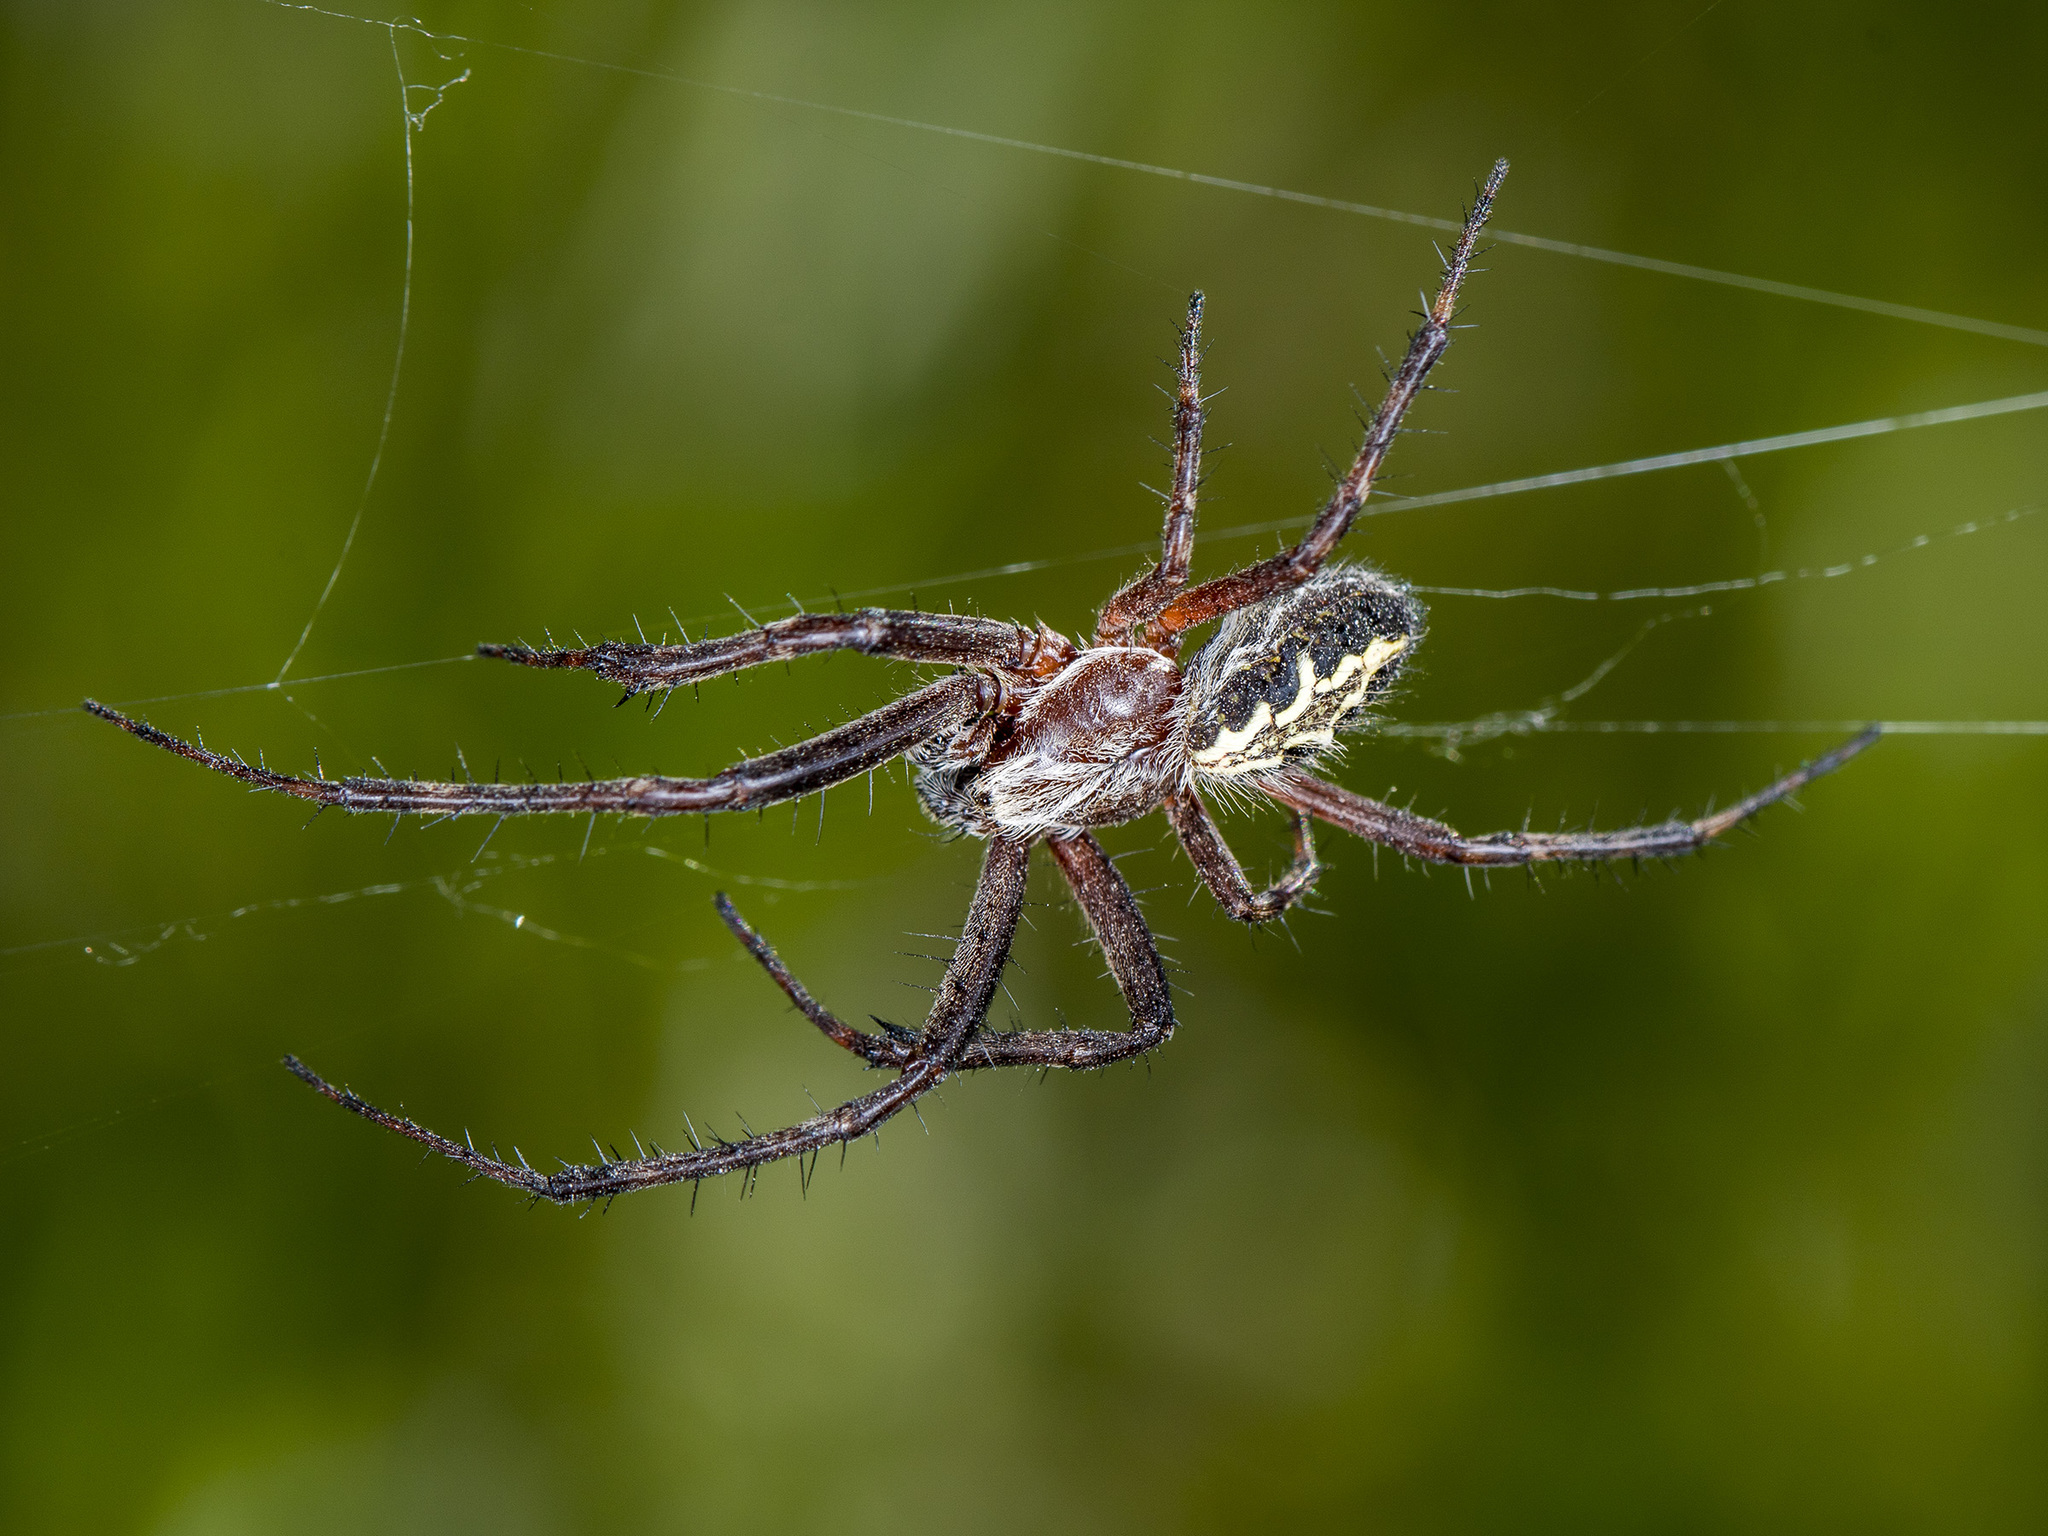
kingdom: Animalia
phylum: Arthropoda
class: Arachnida
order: Araneae
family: Araneidae
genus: Aculepeira
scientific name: Aculepeira packardi
